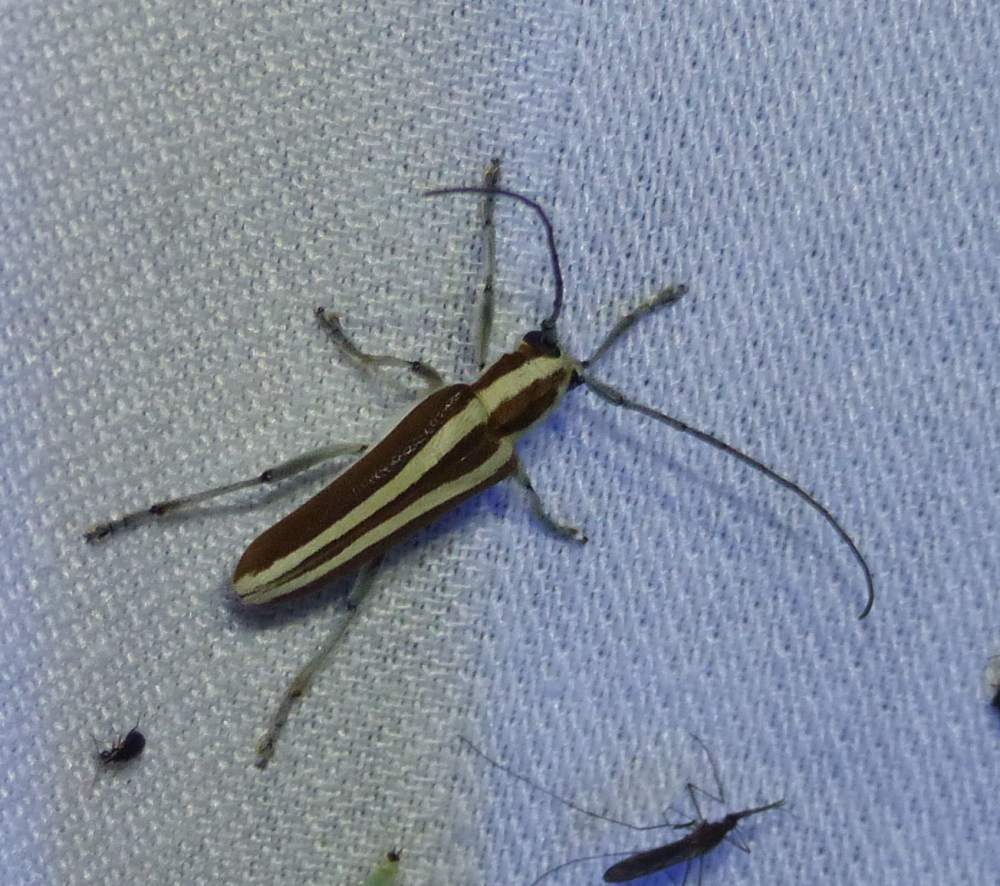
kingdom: Animalia
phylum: Arthropoda
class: Insecta
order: Coleoptera
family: Cerambycidae
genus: Saperda
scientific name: Saperda candida
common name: Round-headed borer
